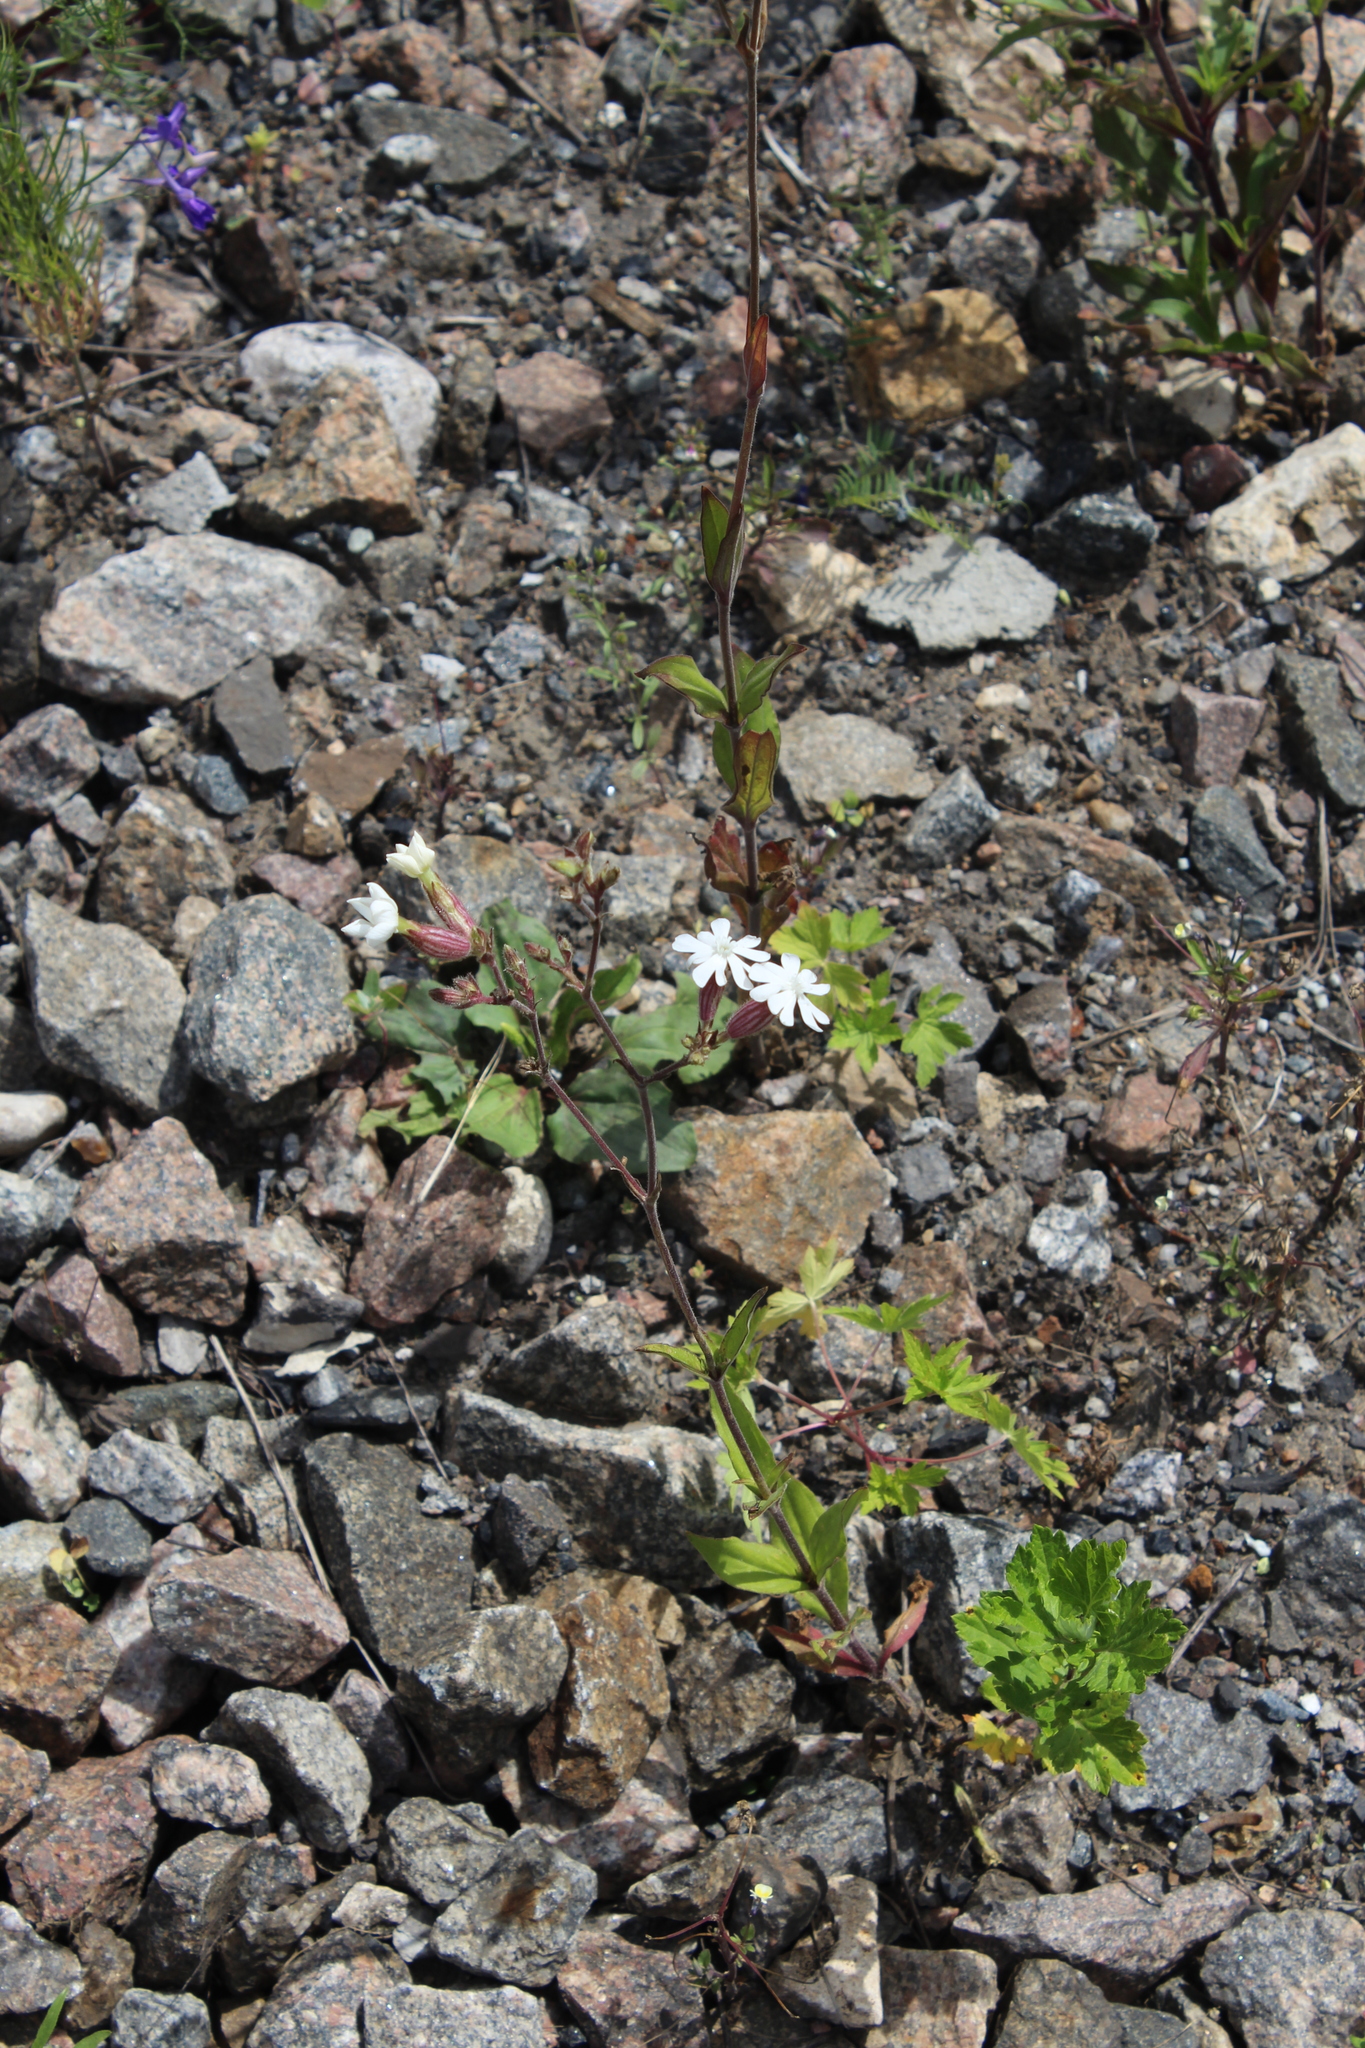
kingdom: Plantae
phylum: Tracheophyta
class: Magnoliopsida
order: Caryophyllales
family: Caryophyllaceae
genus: Silene
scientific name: Silene latifolia
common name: White campion
